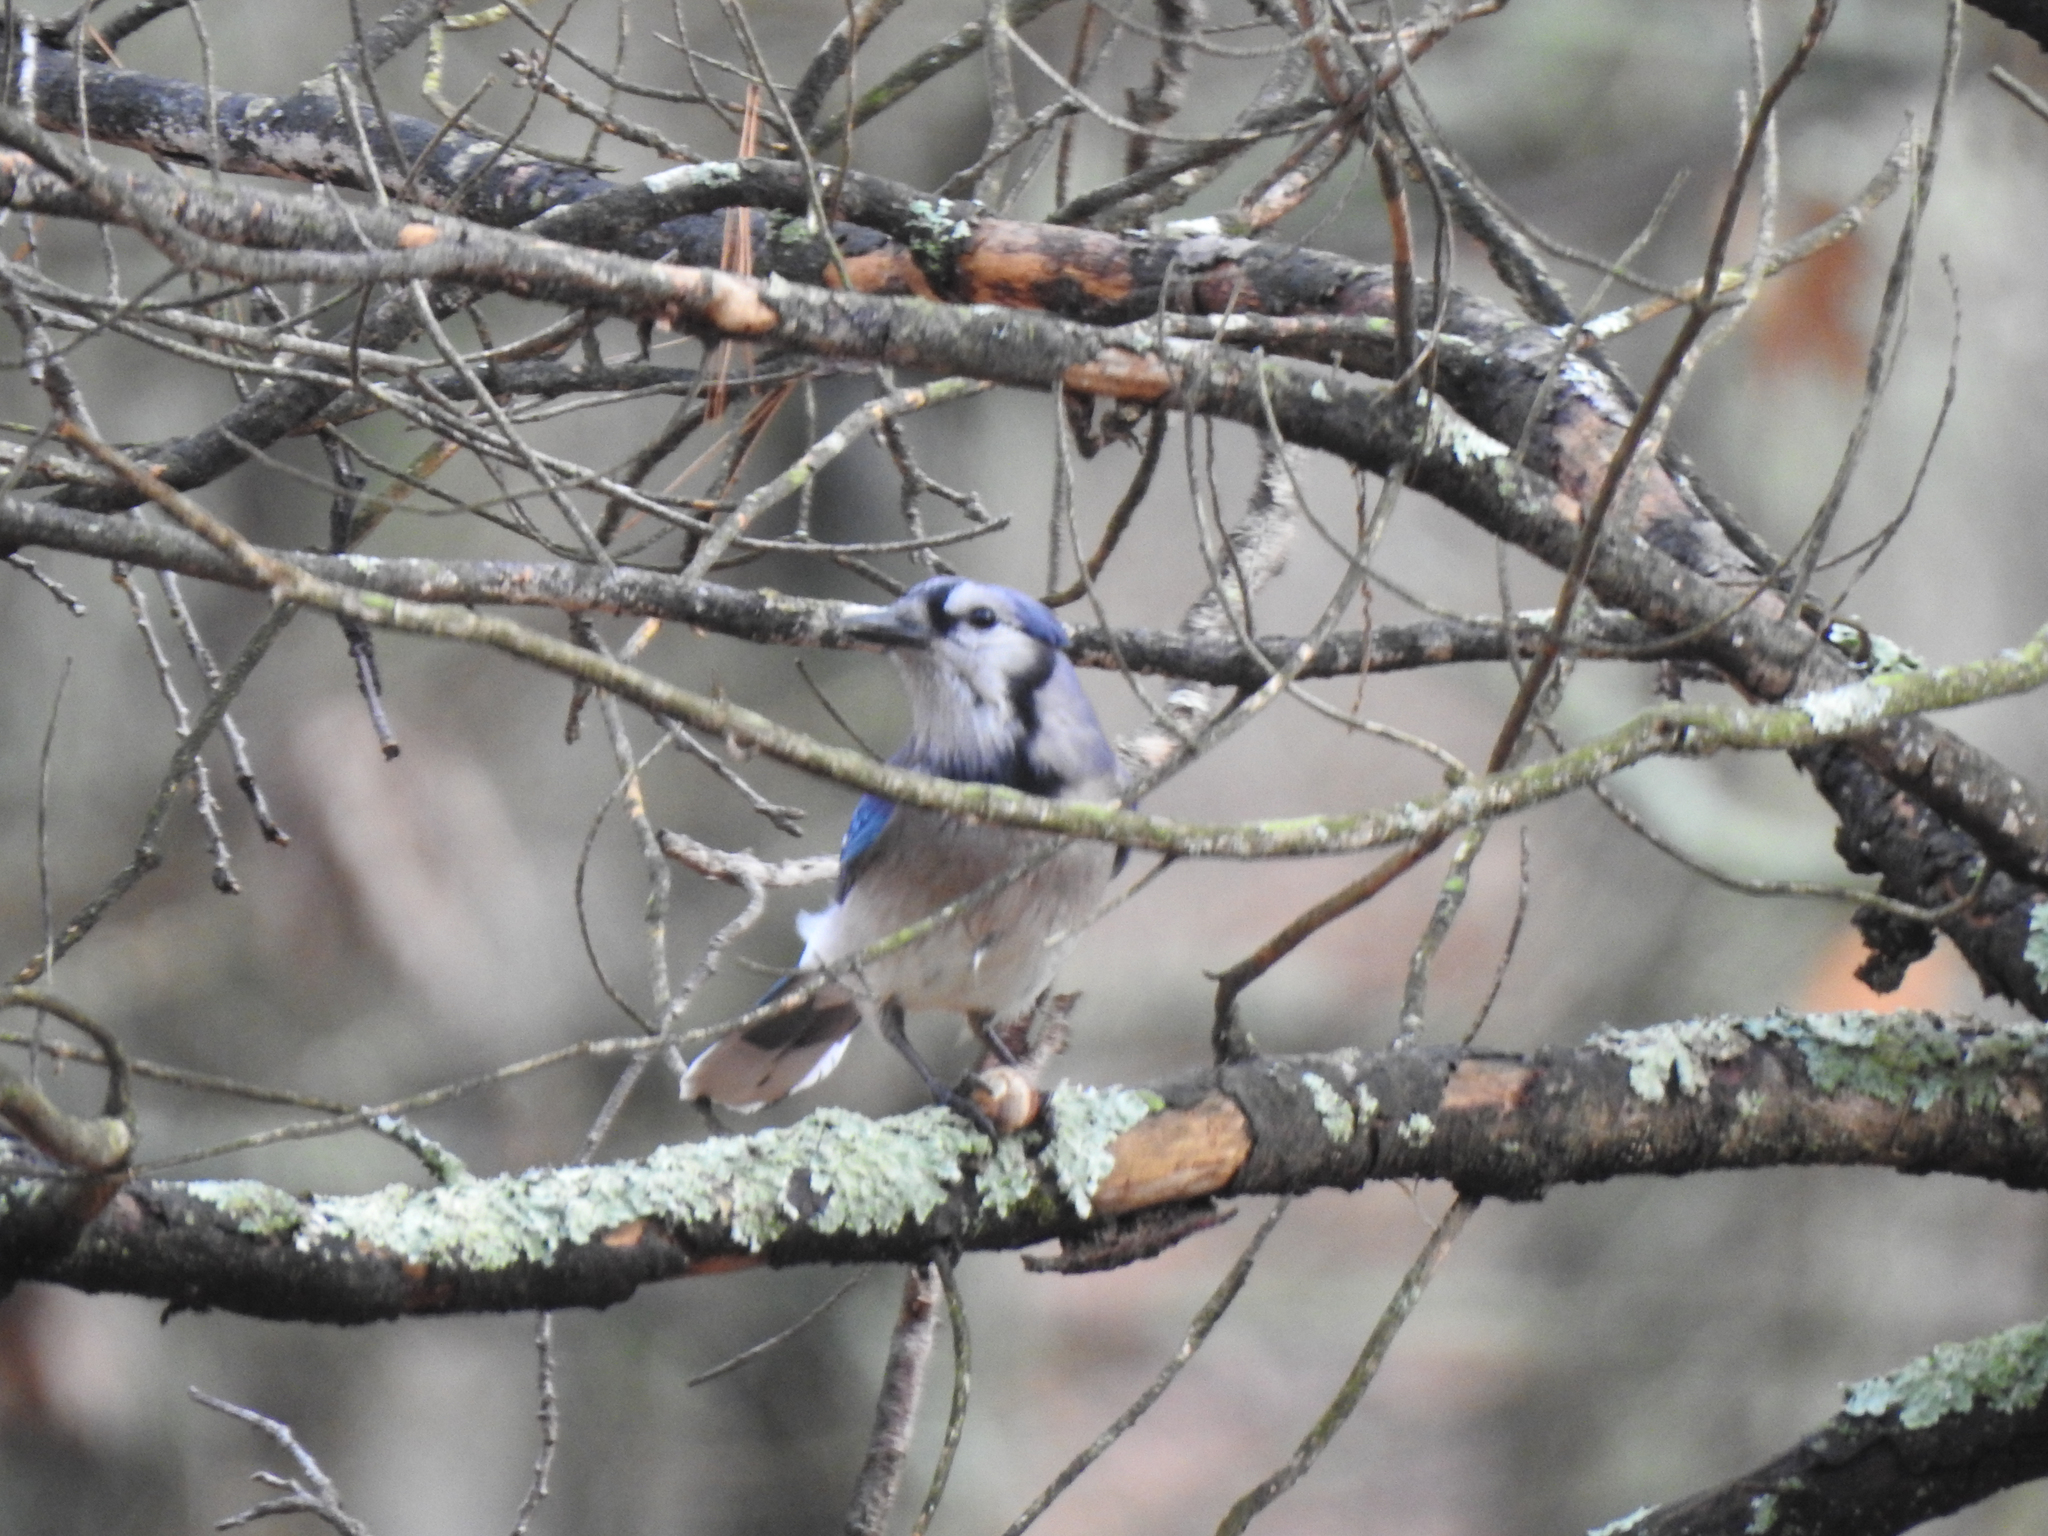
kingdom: Animalia
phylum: Chordata
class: Aves
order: Passeriformes
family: Corvidae
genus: Cyanocitta
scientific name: Cyanocitta cristata
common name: Blue jay
